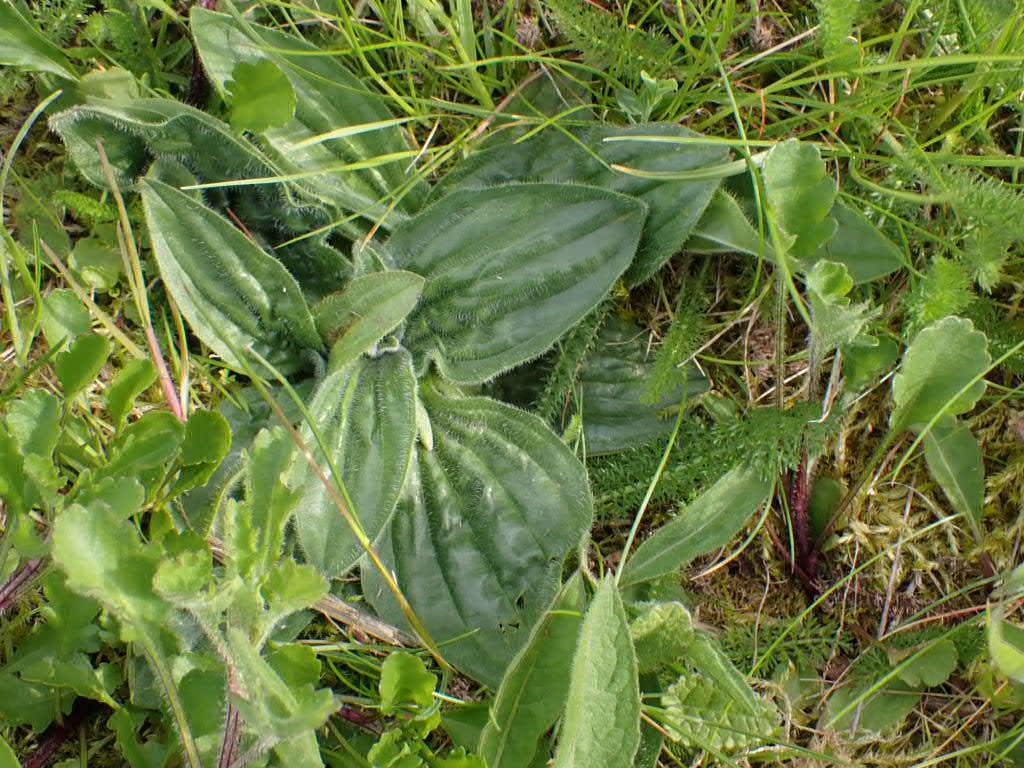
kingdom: Plantae
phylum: Tracheophyta
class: Magnoliopsida
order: Lamiales
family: Plantaginaceae
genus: Plantago
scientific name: Plantago media
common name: Hoary plantain
